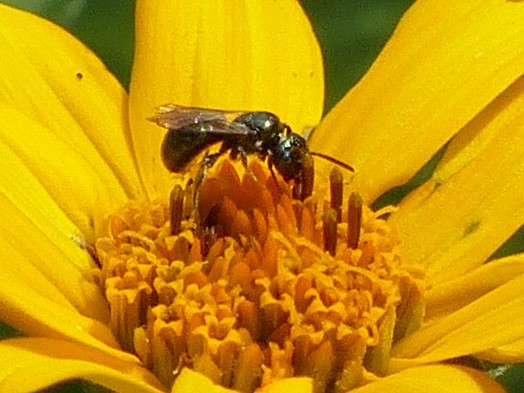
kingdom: Animalia
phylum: Arthropoda
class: Insecta
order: Hymenoptera
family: Apidae
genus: Zadontomerus
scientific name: Zadontomerus
